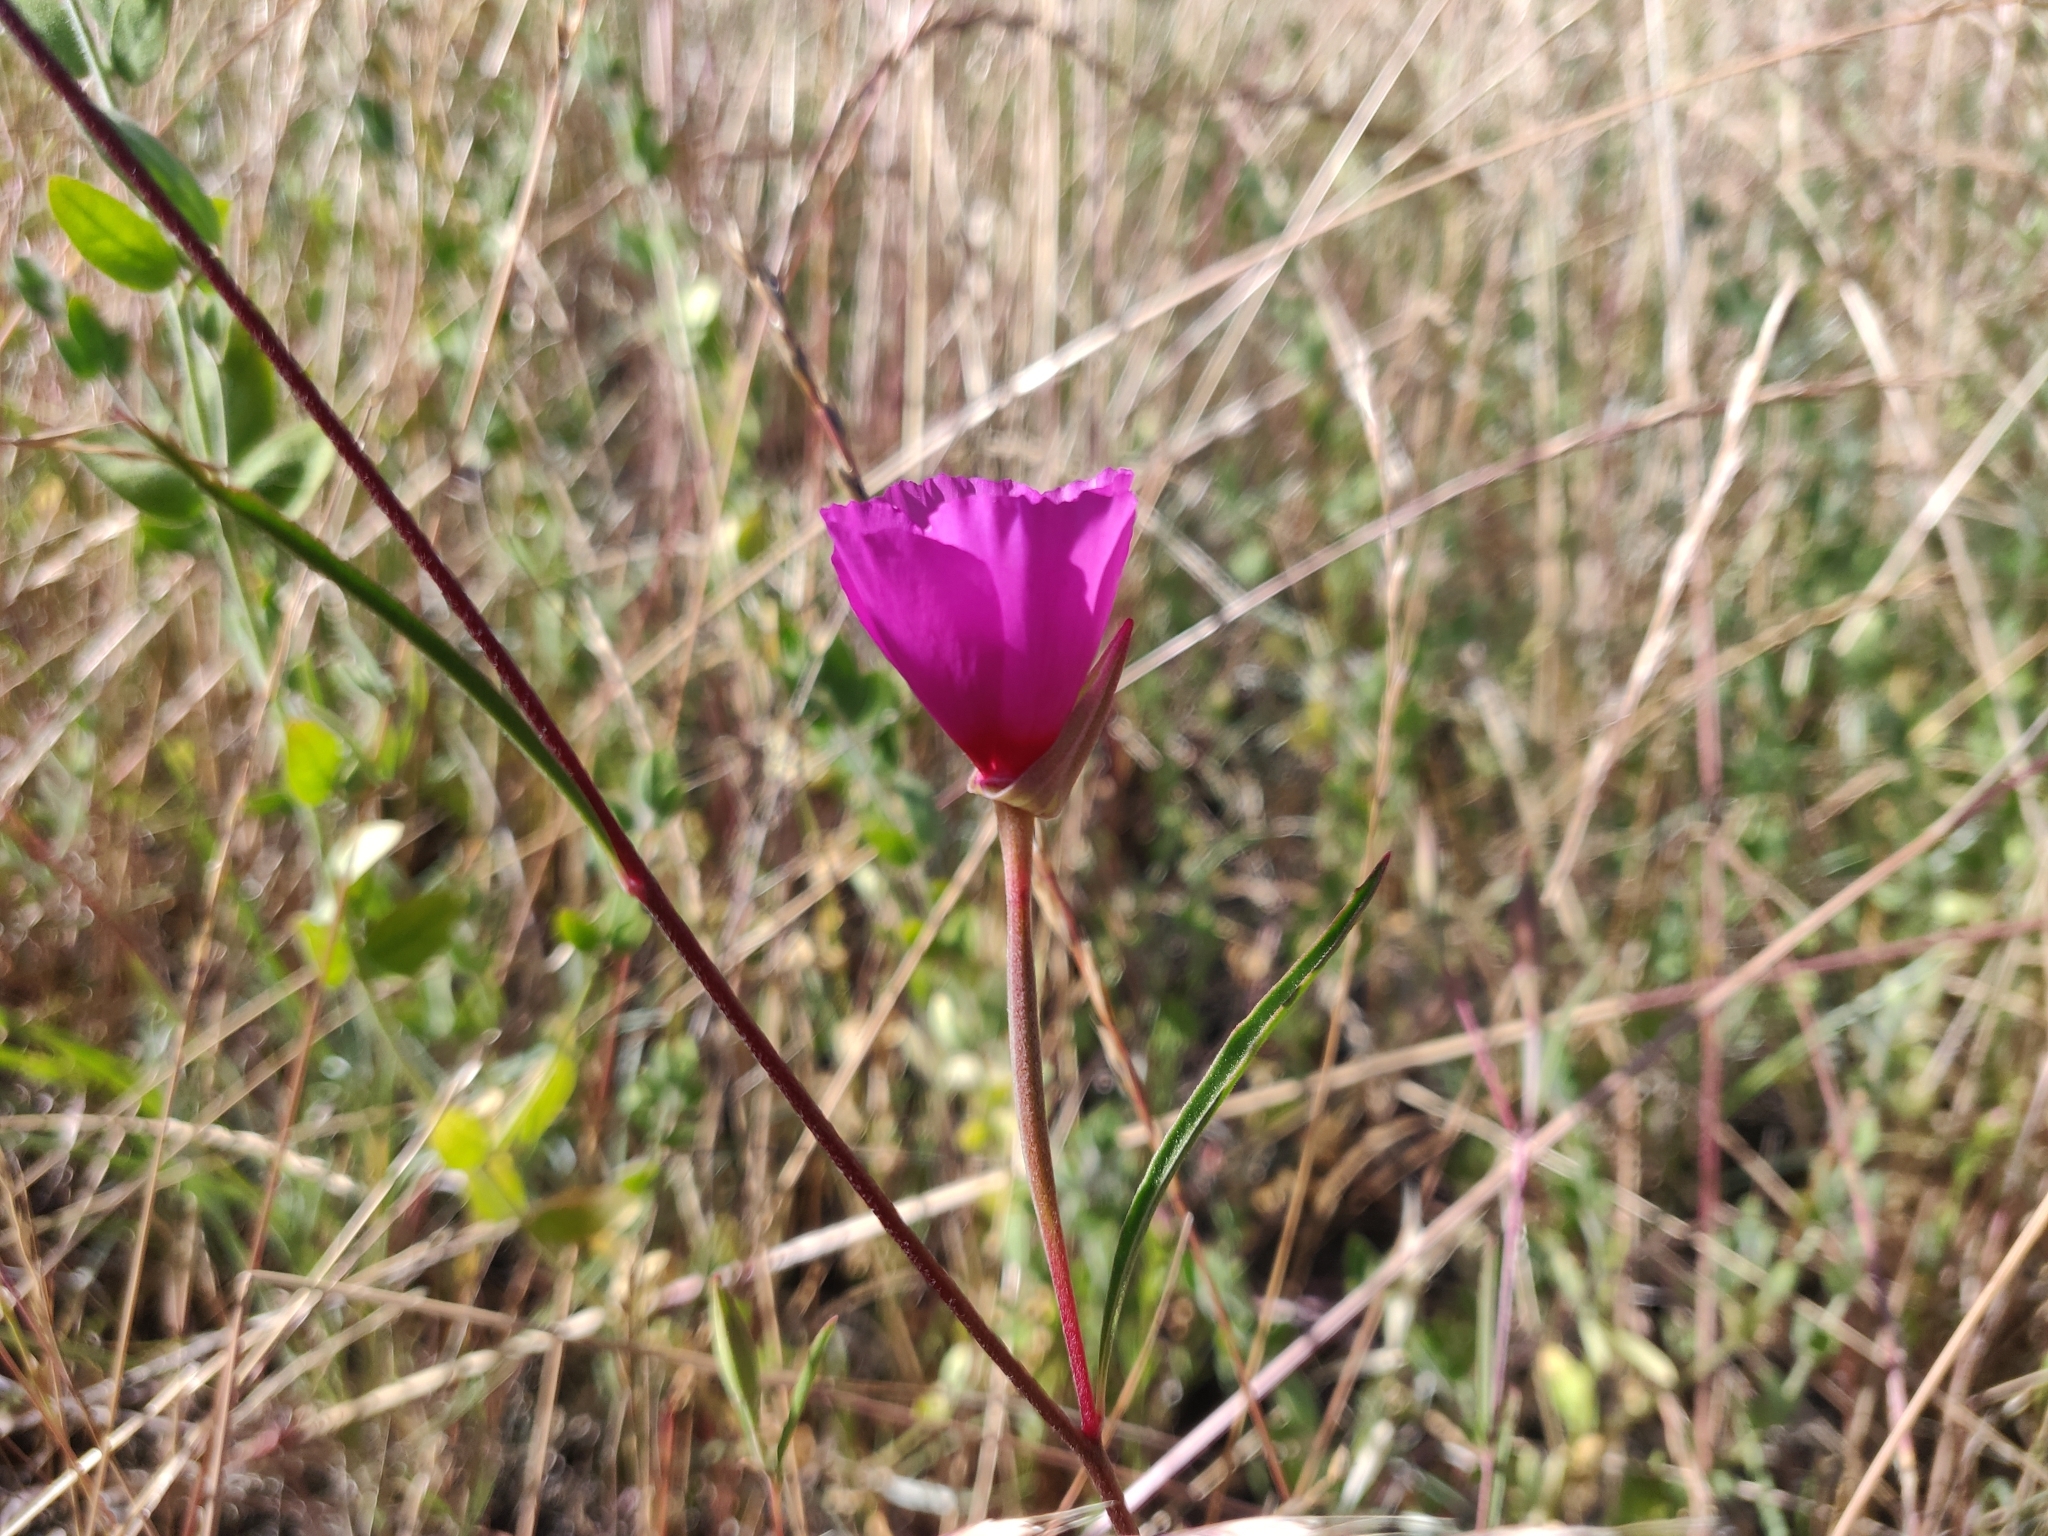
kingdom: Plantae
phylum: Tracheophyta
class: Magnoliopsida
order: Myrtales
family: Onagraceae
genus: Clarkia
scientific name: Clarkia rubicunda
